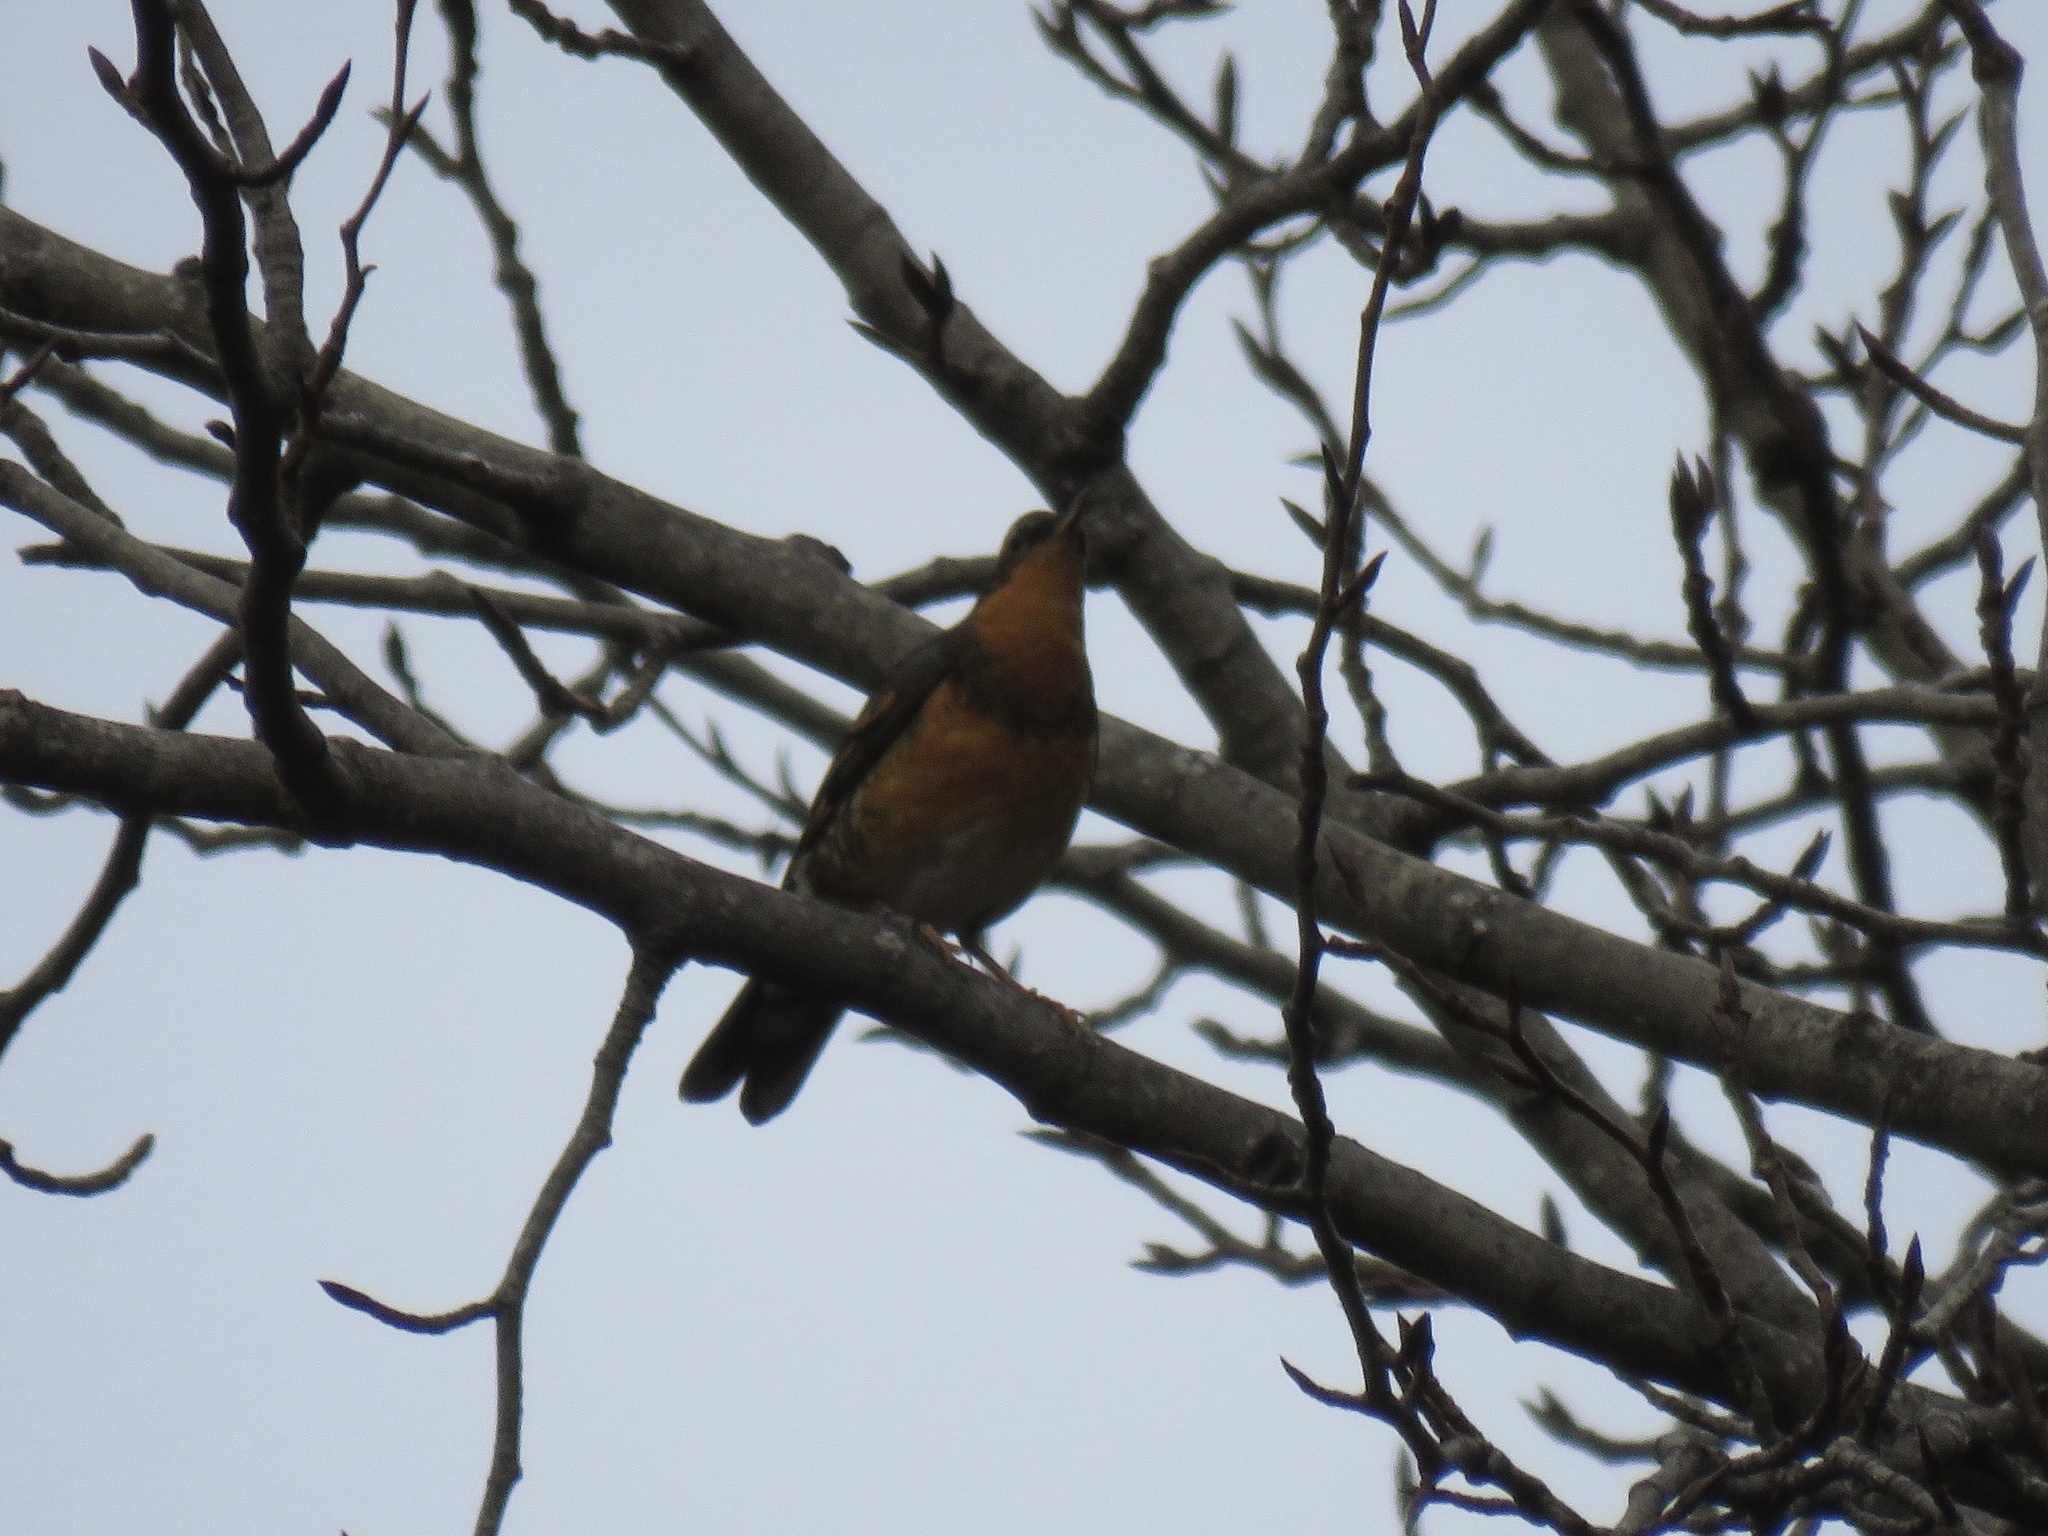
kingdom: Animalia
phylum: Chordata
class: Aves
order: Passeriformes
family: Turdidae
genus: Ixoreus
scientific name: Ixoreus naevius
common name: Varied thrush
